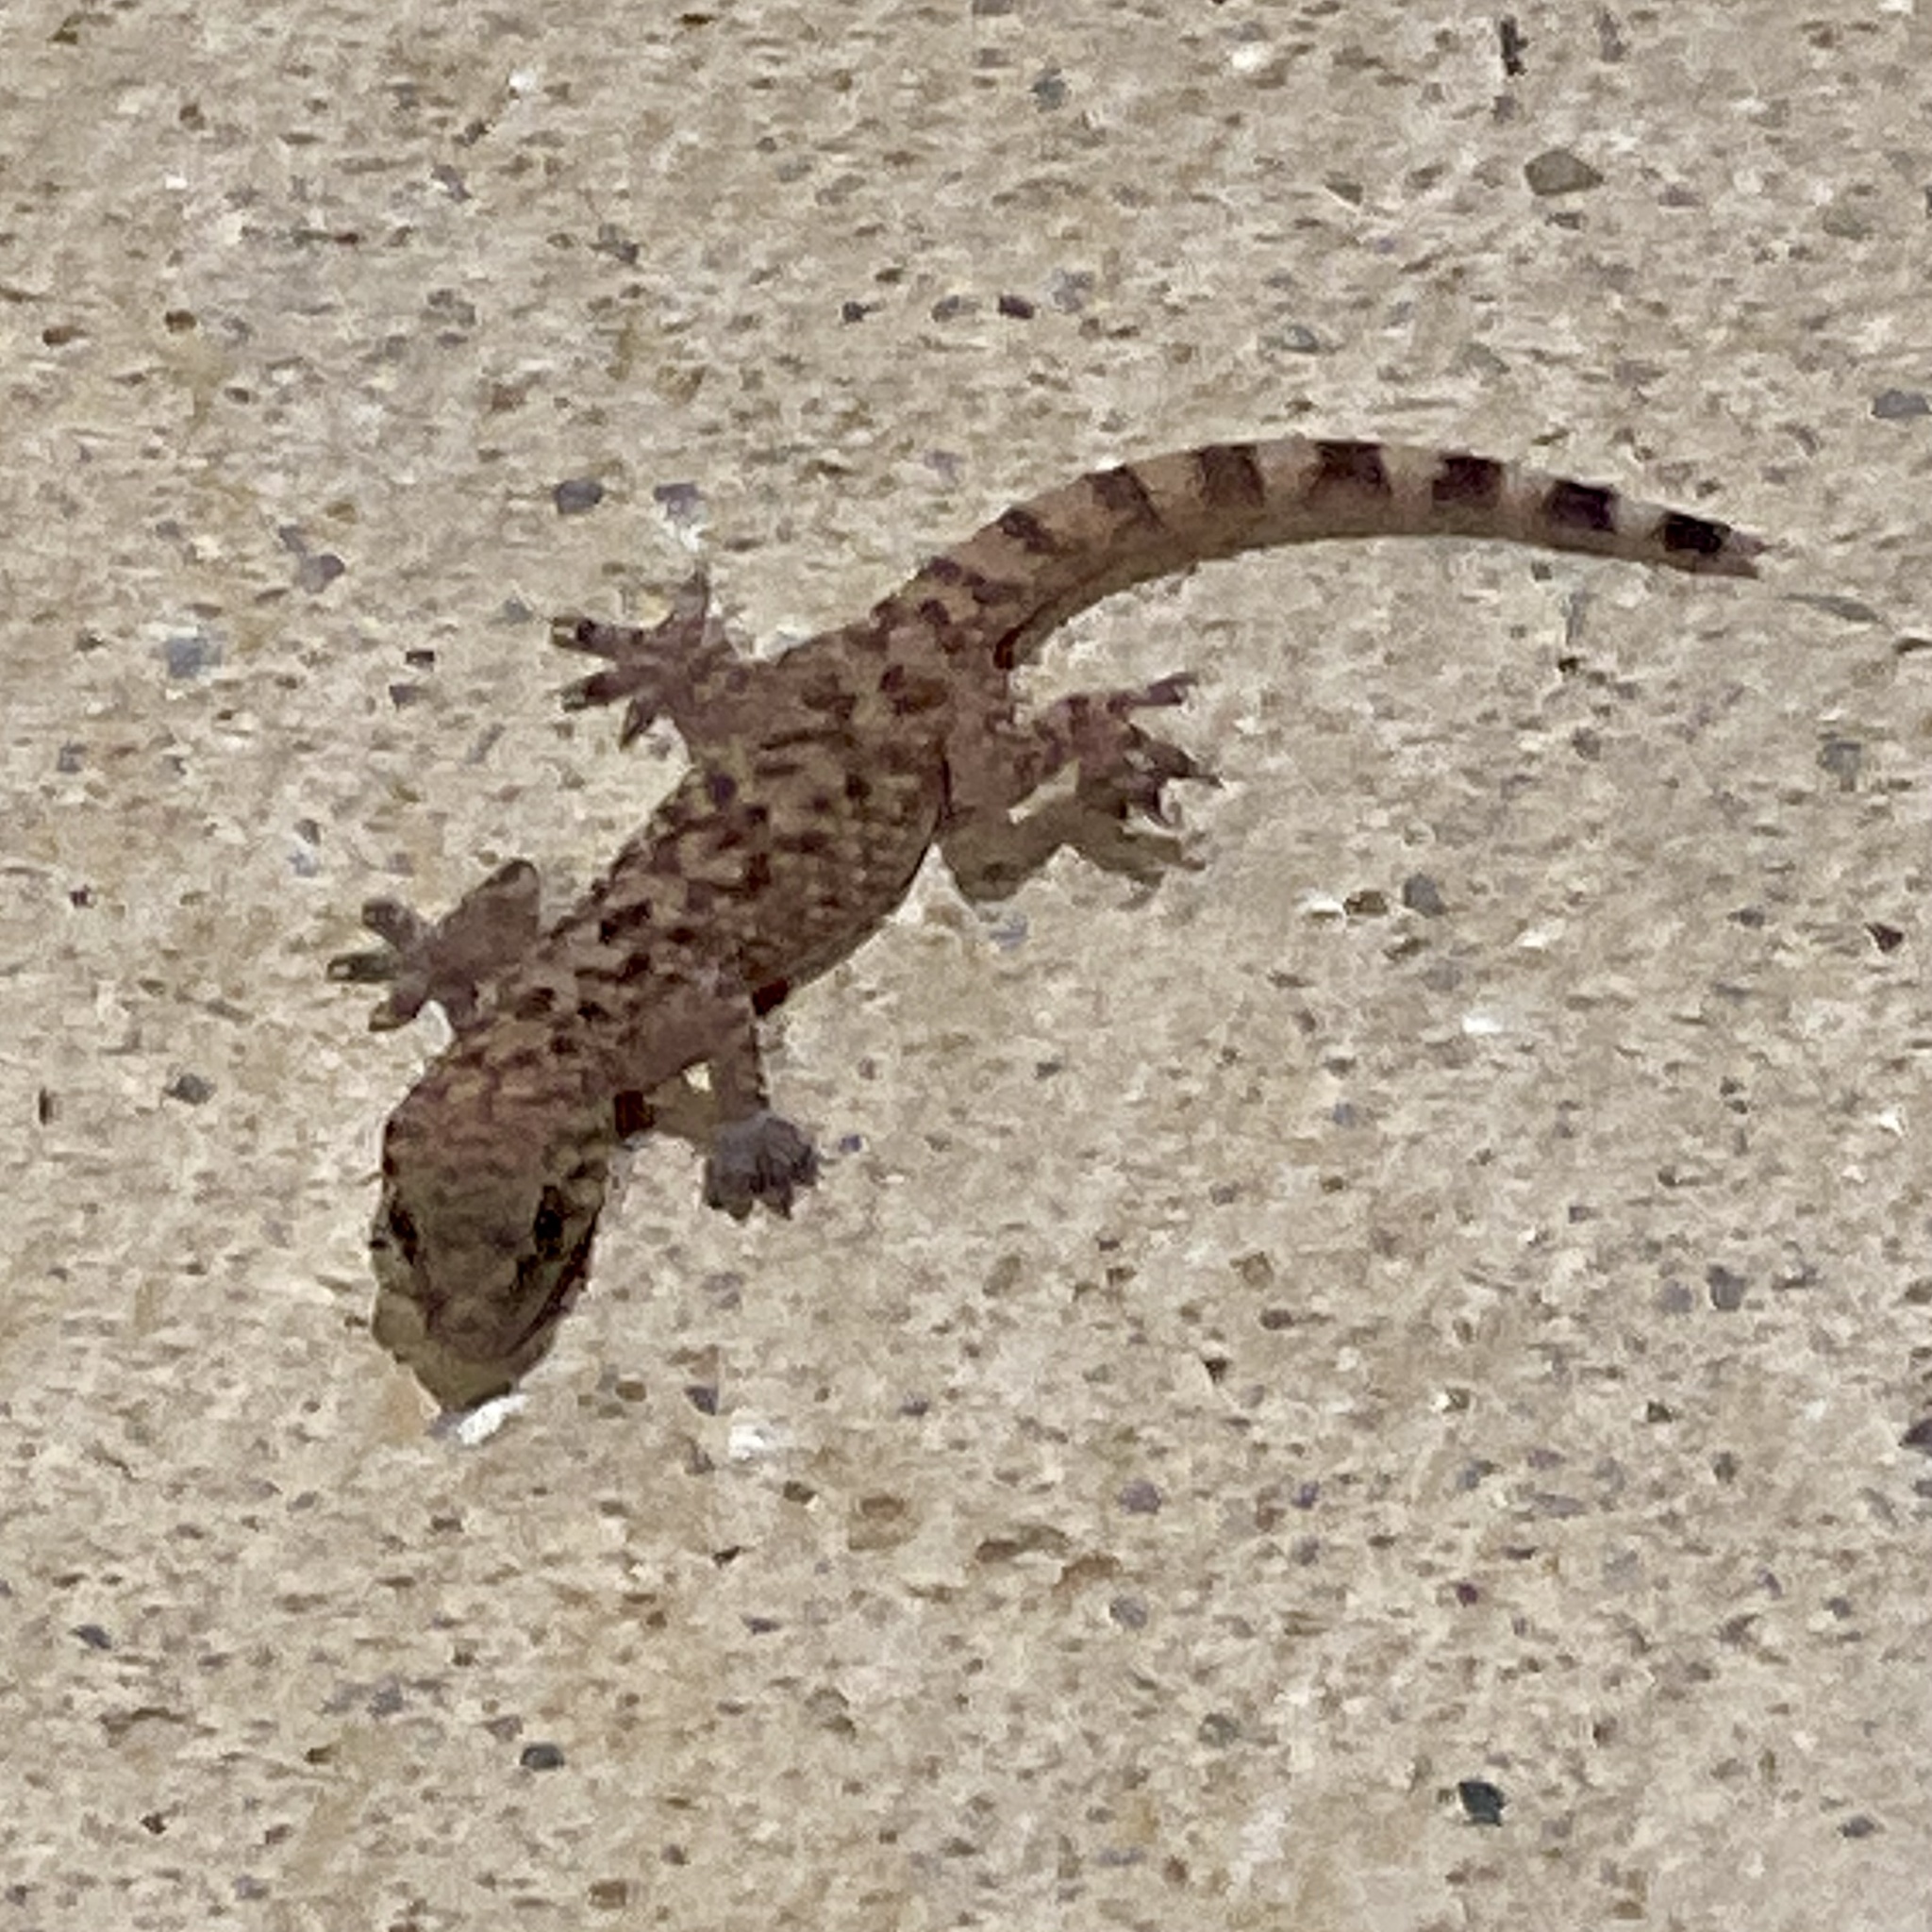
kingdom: Animalia
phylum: Chordata
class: Squamata
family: Gekkonidae
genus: Hemidactylus
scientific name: Hemidactylus turcicus
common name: Turkish gecko
